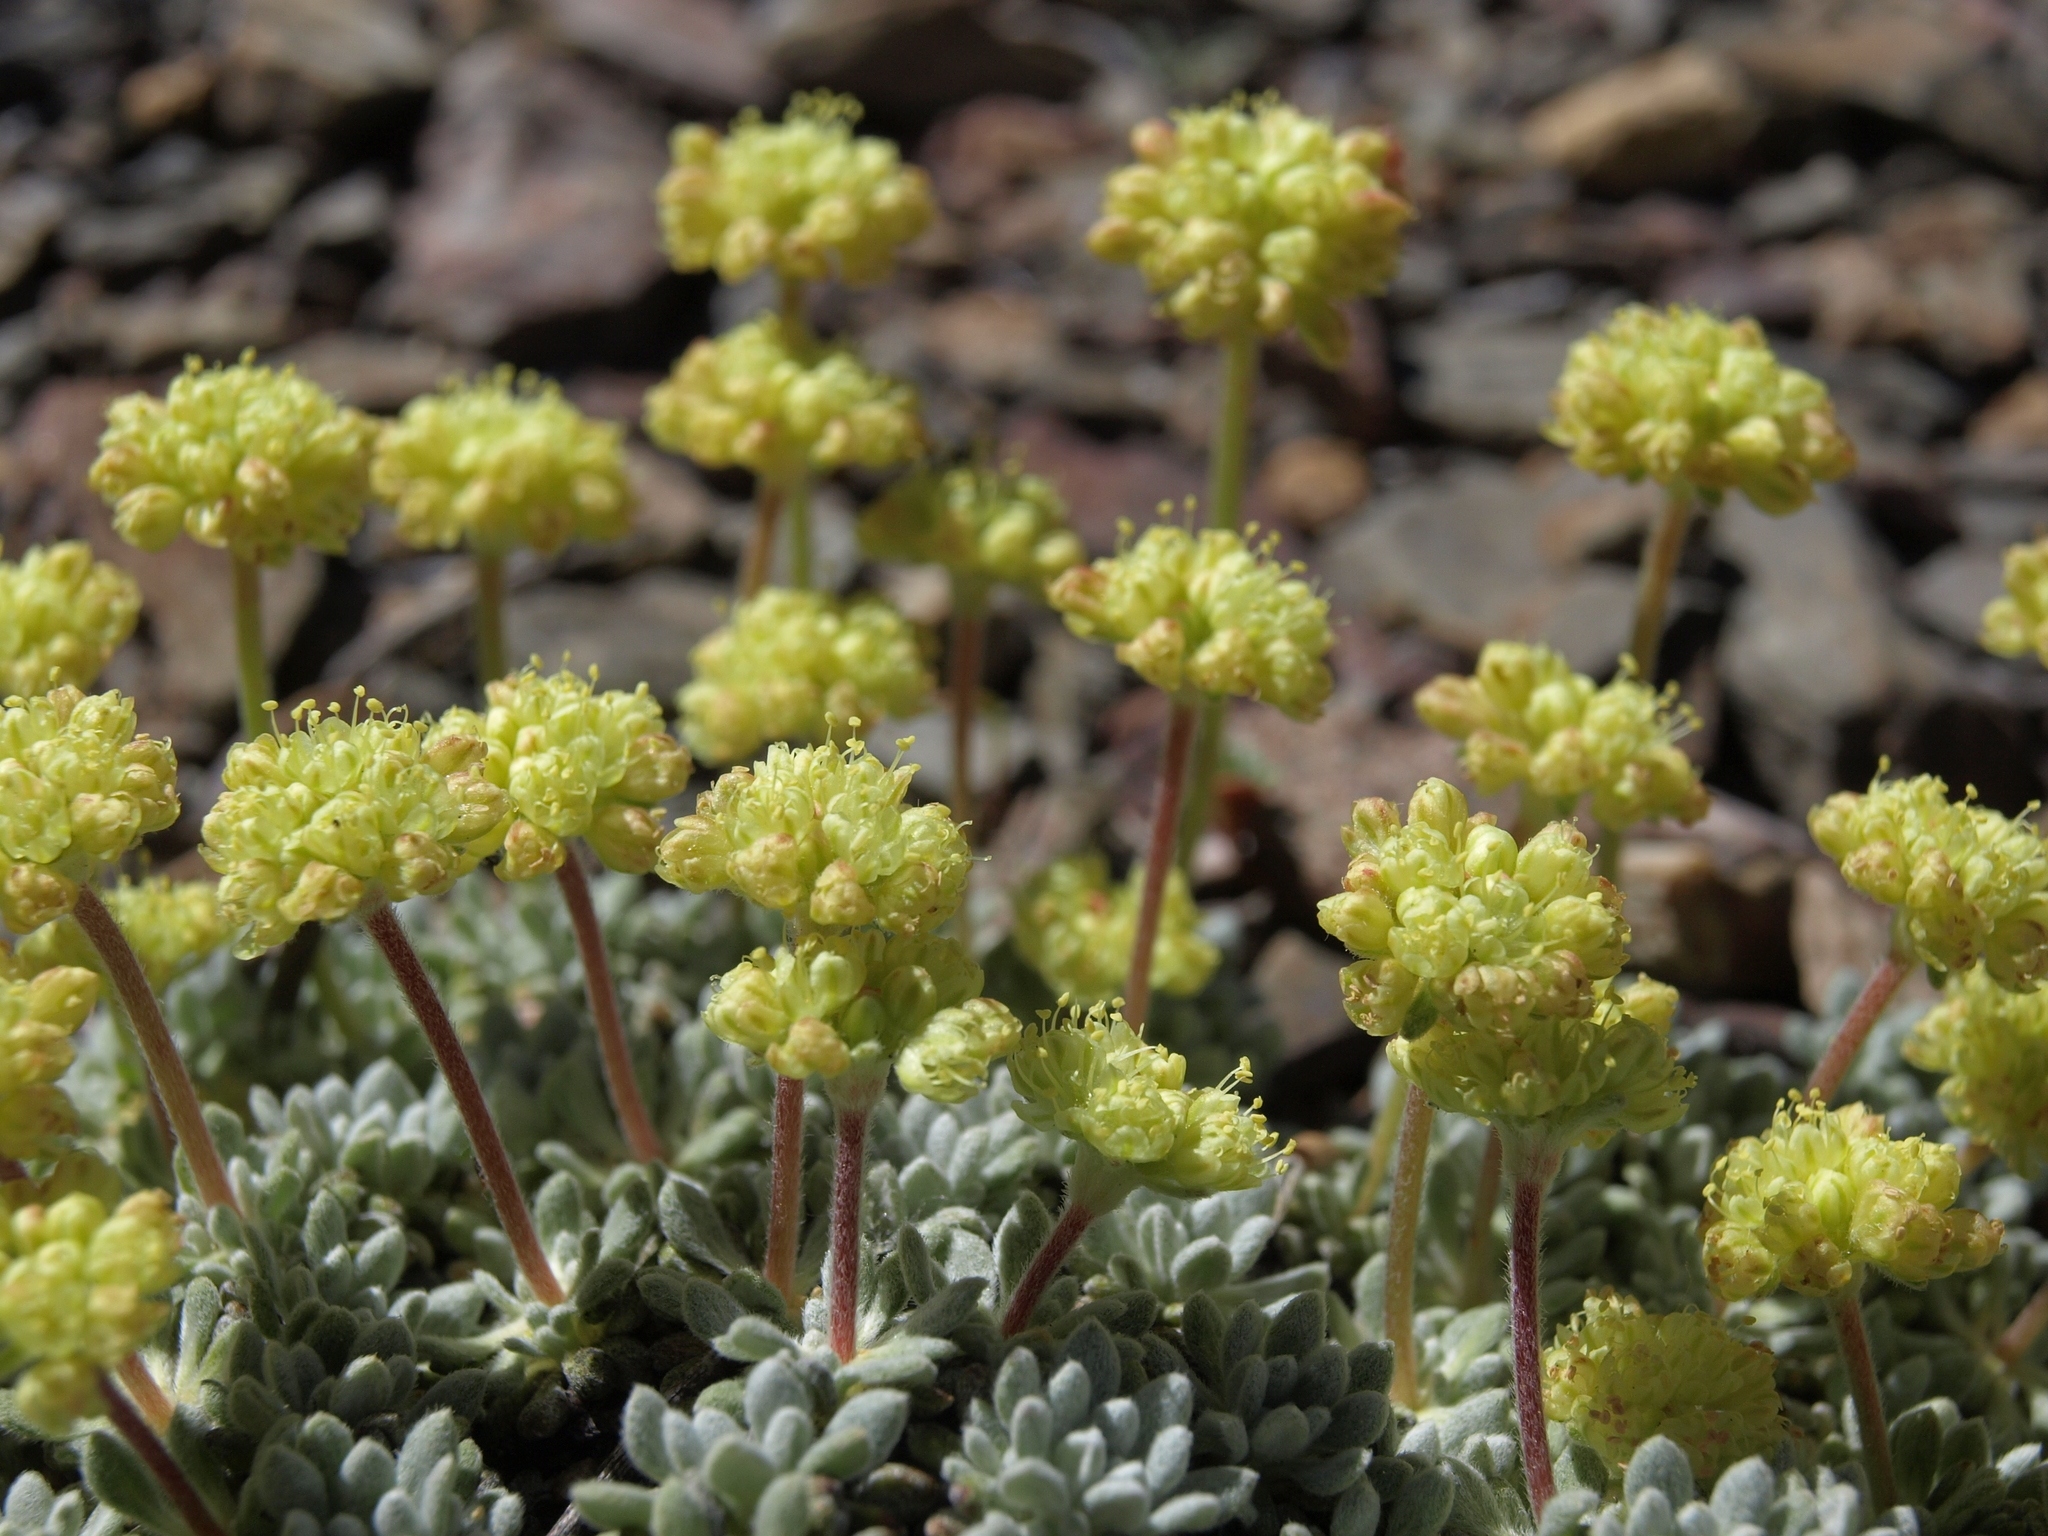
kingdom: Plantae
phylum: Tracheophyta
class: Magnoliopsida
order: Caryophyllales
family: Polygonaceae
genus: Eriogonum
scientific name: Eriogonum caespitosum
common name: Matted wild buckwheat
